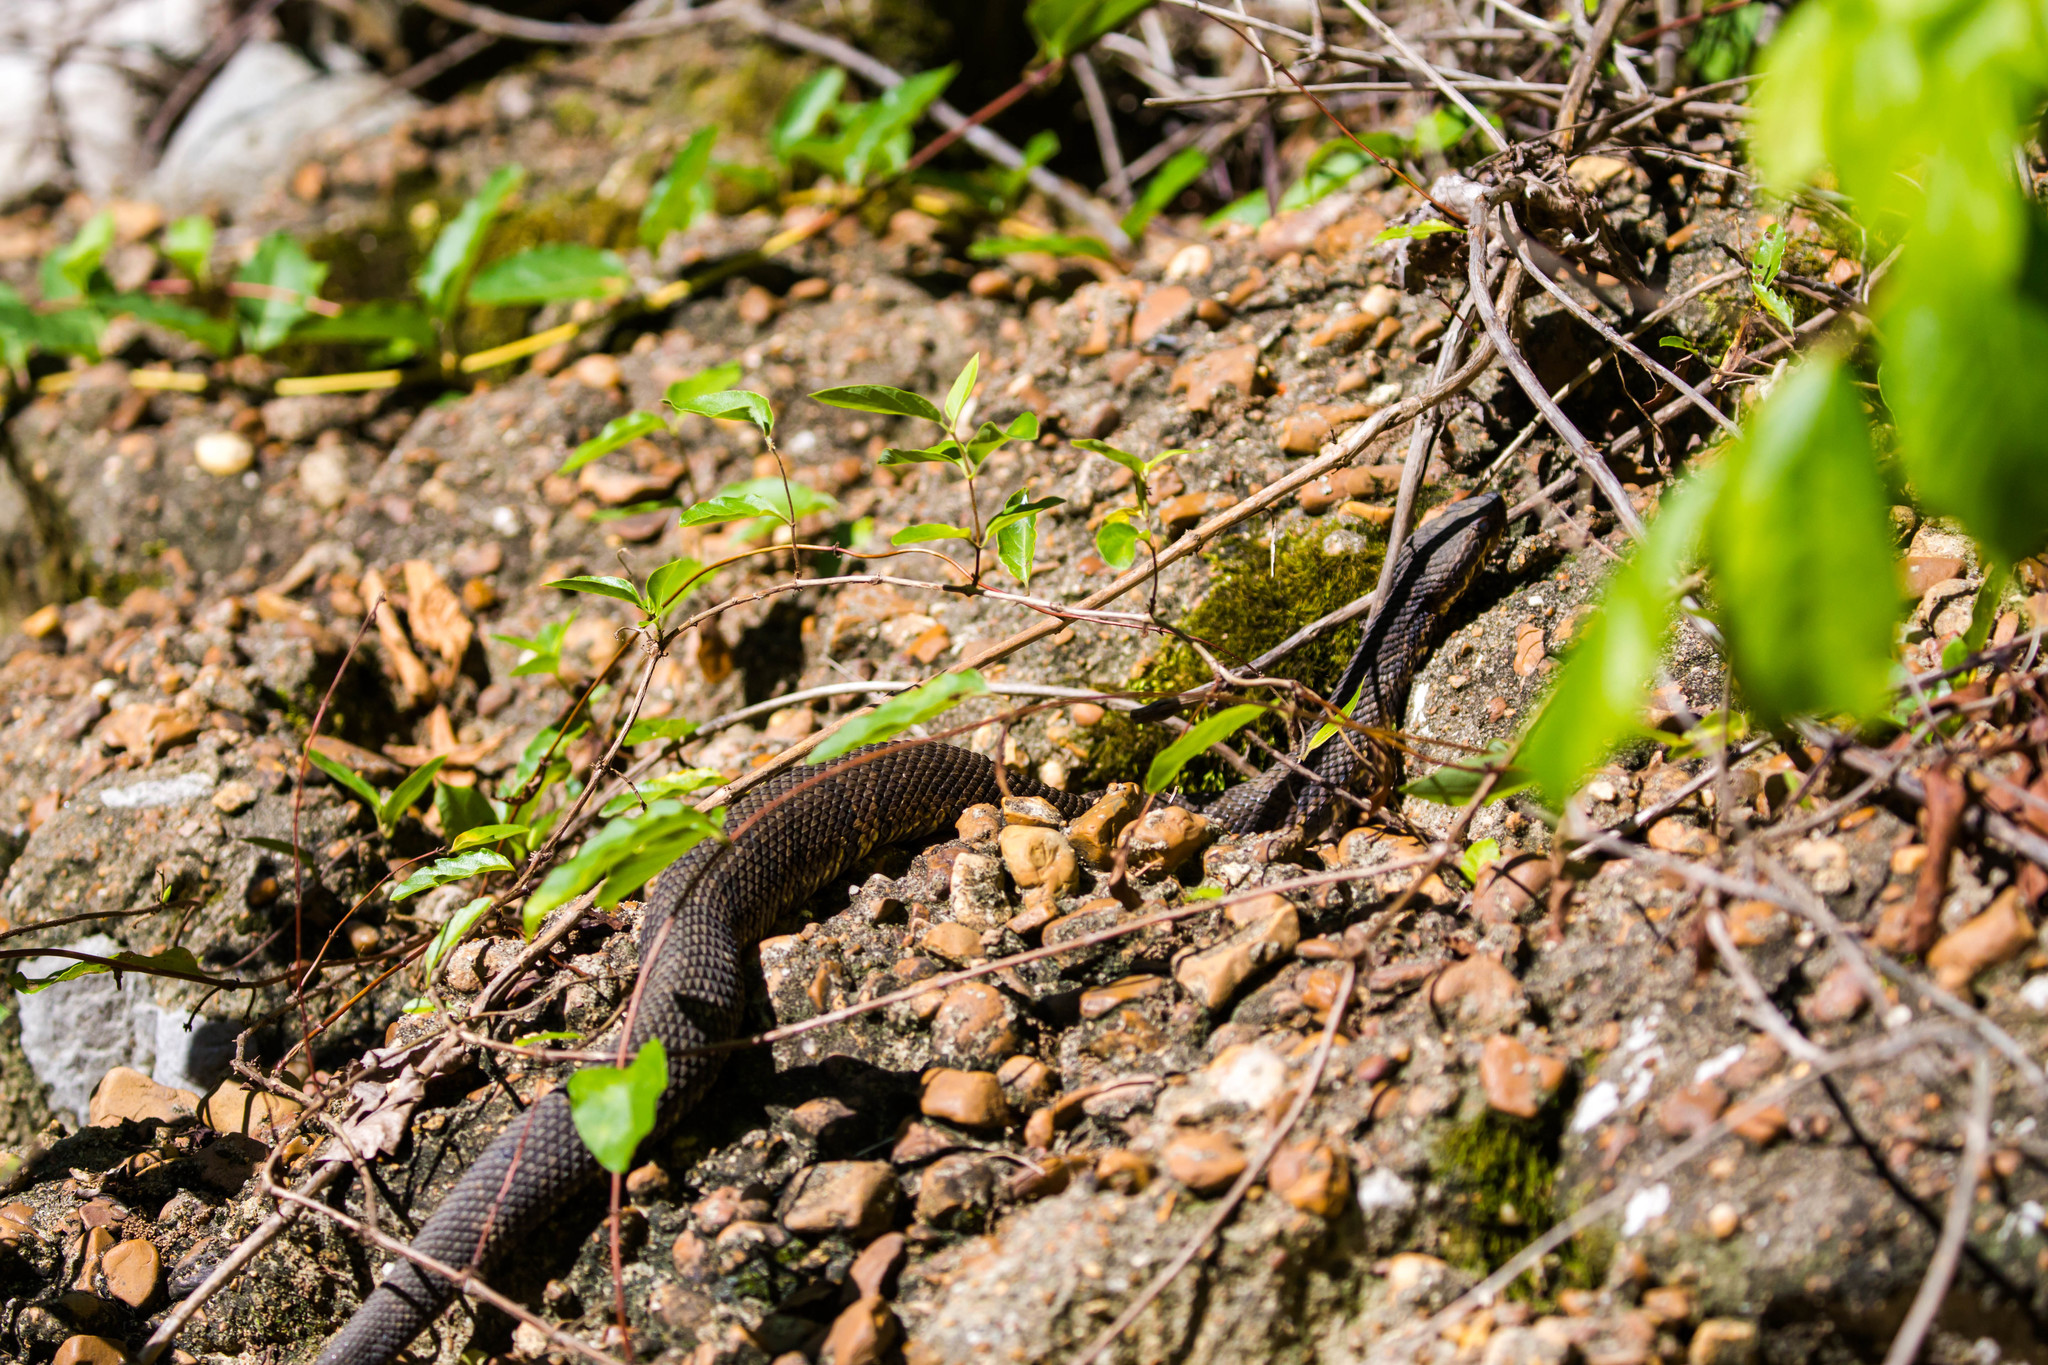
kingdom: Animalia
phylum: Chordata
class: Squamata
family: Viperidae
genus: Agkistrodon
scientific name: Agkistrodon piscivorus
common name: Cottonmouth
